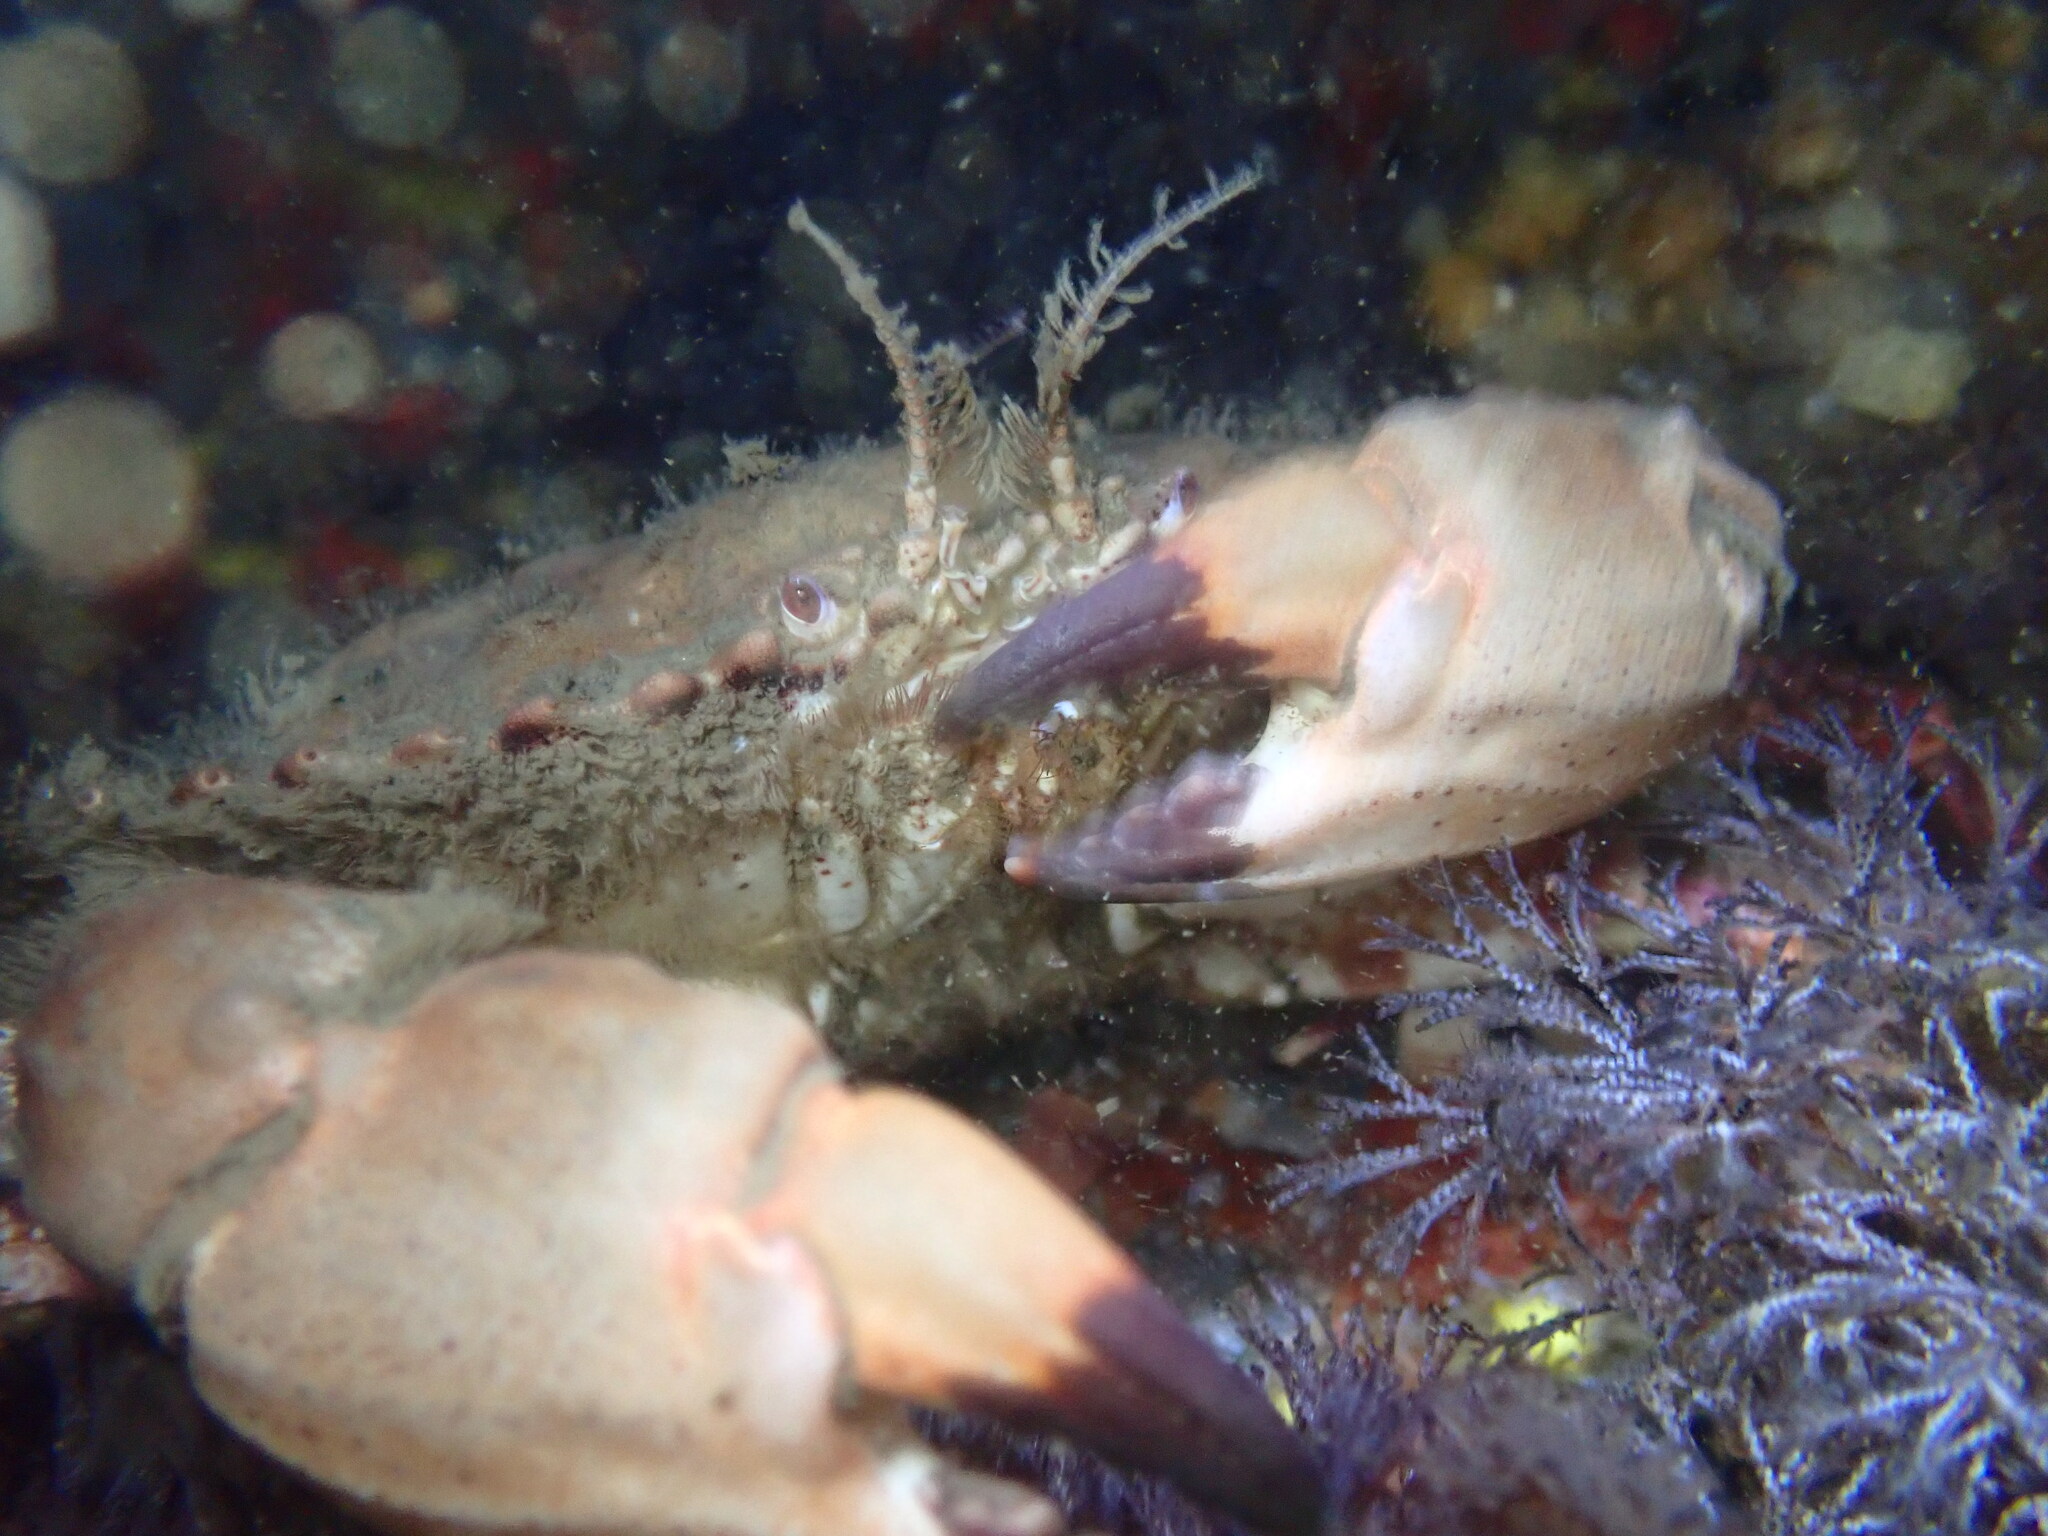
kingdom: Animalia
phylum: Arthropoda
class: Malacostraca
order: Decapoda
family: Cancridae
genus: Romaleon
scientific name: Romaleon antennarium
